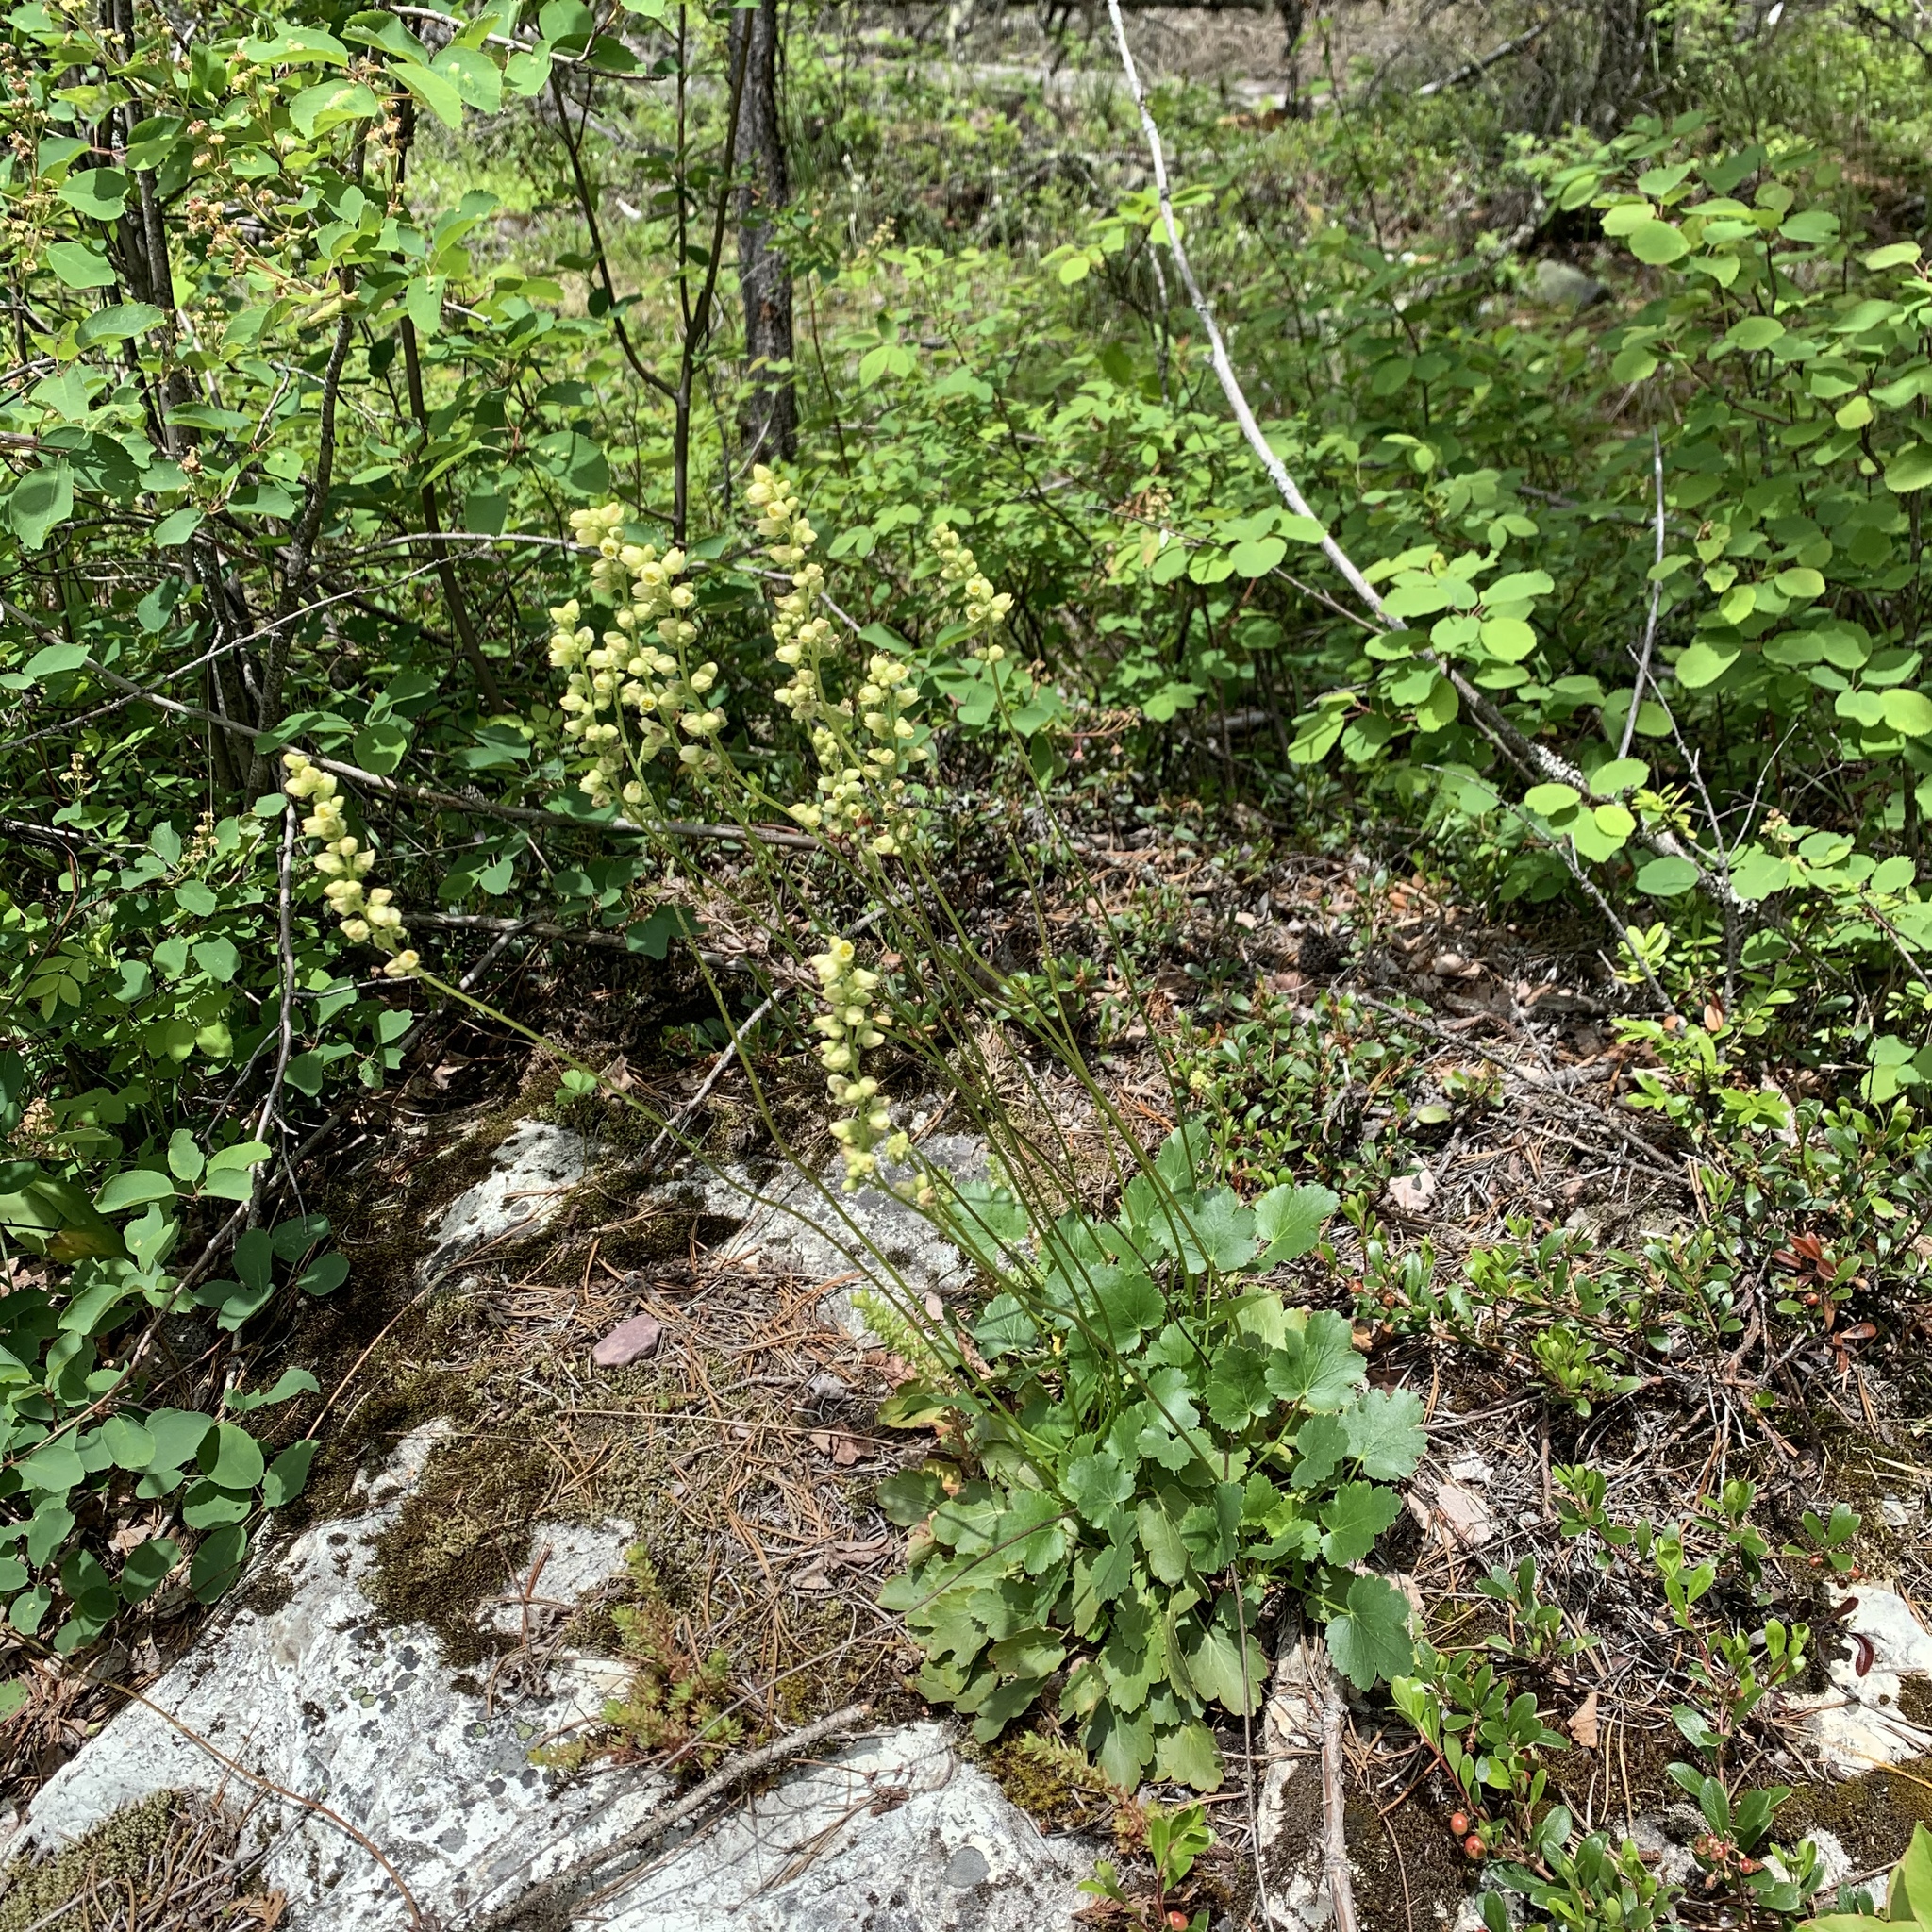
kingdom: Plantae
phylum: Tracheophyta
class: Magnoliopsida
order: Saxifragales
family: Saxifragaceae
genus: Heuchera
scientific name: Heuchera cylindrica
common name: Mat alumroot
